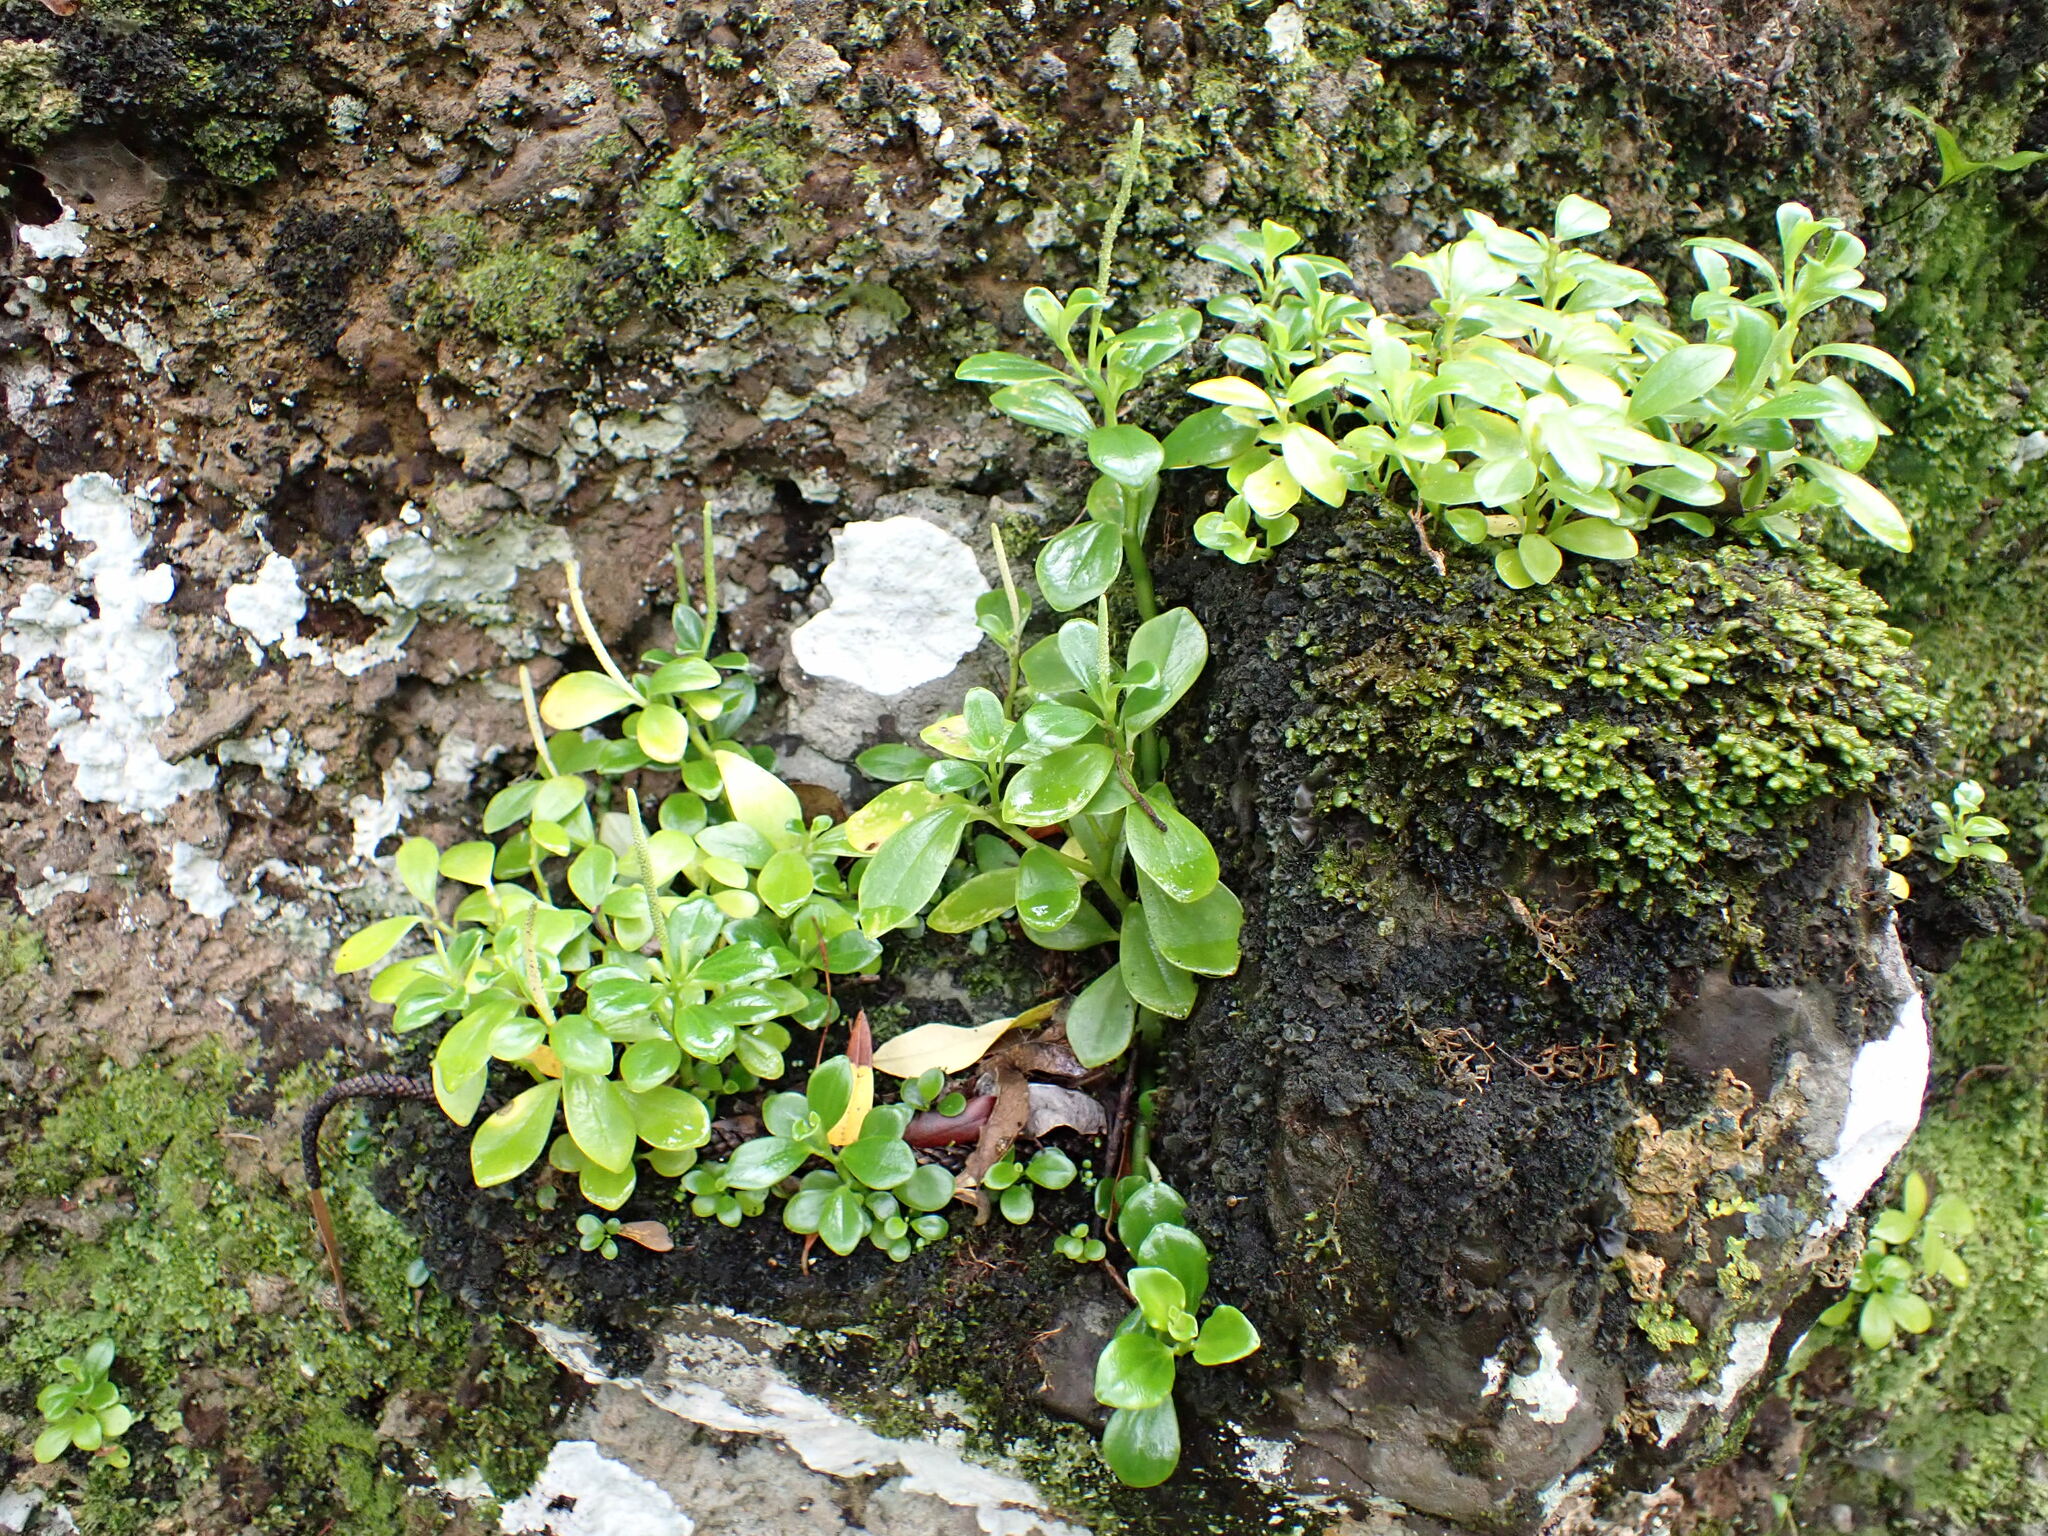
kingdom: Plantae
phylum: Tracheophyta
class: Magnoliopsida
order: Piperales
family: Piperaceae
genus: Peperomia
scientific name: Peperomia urvilleana
